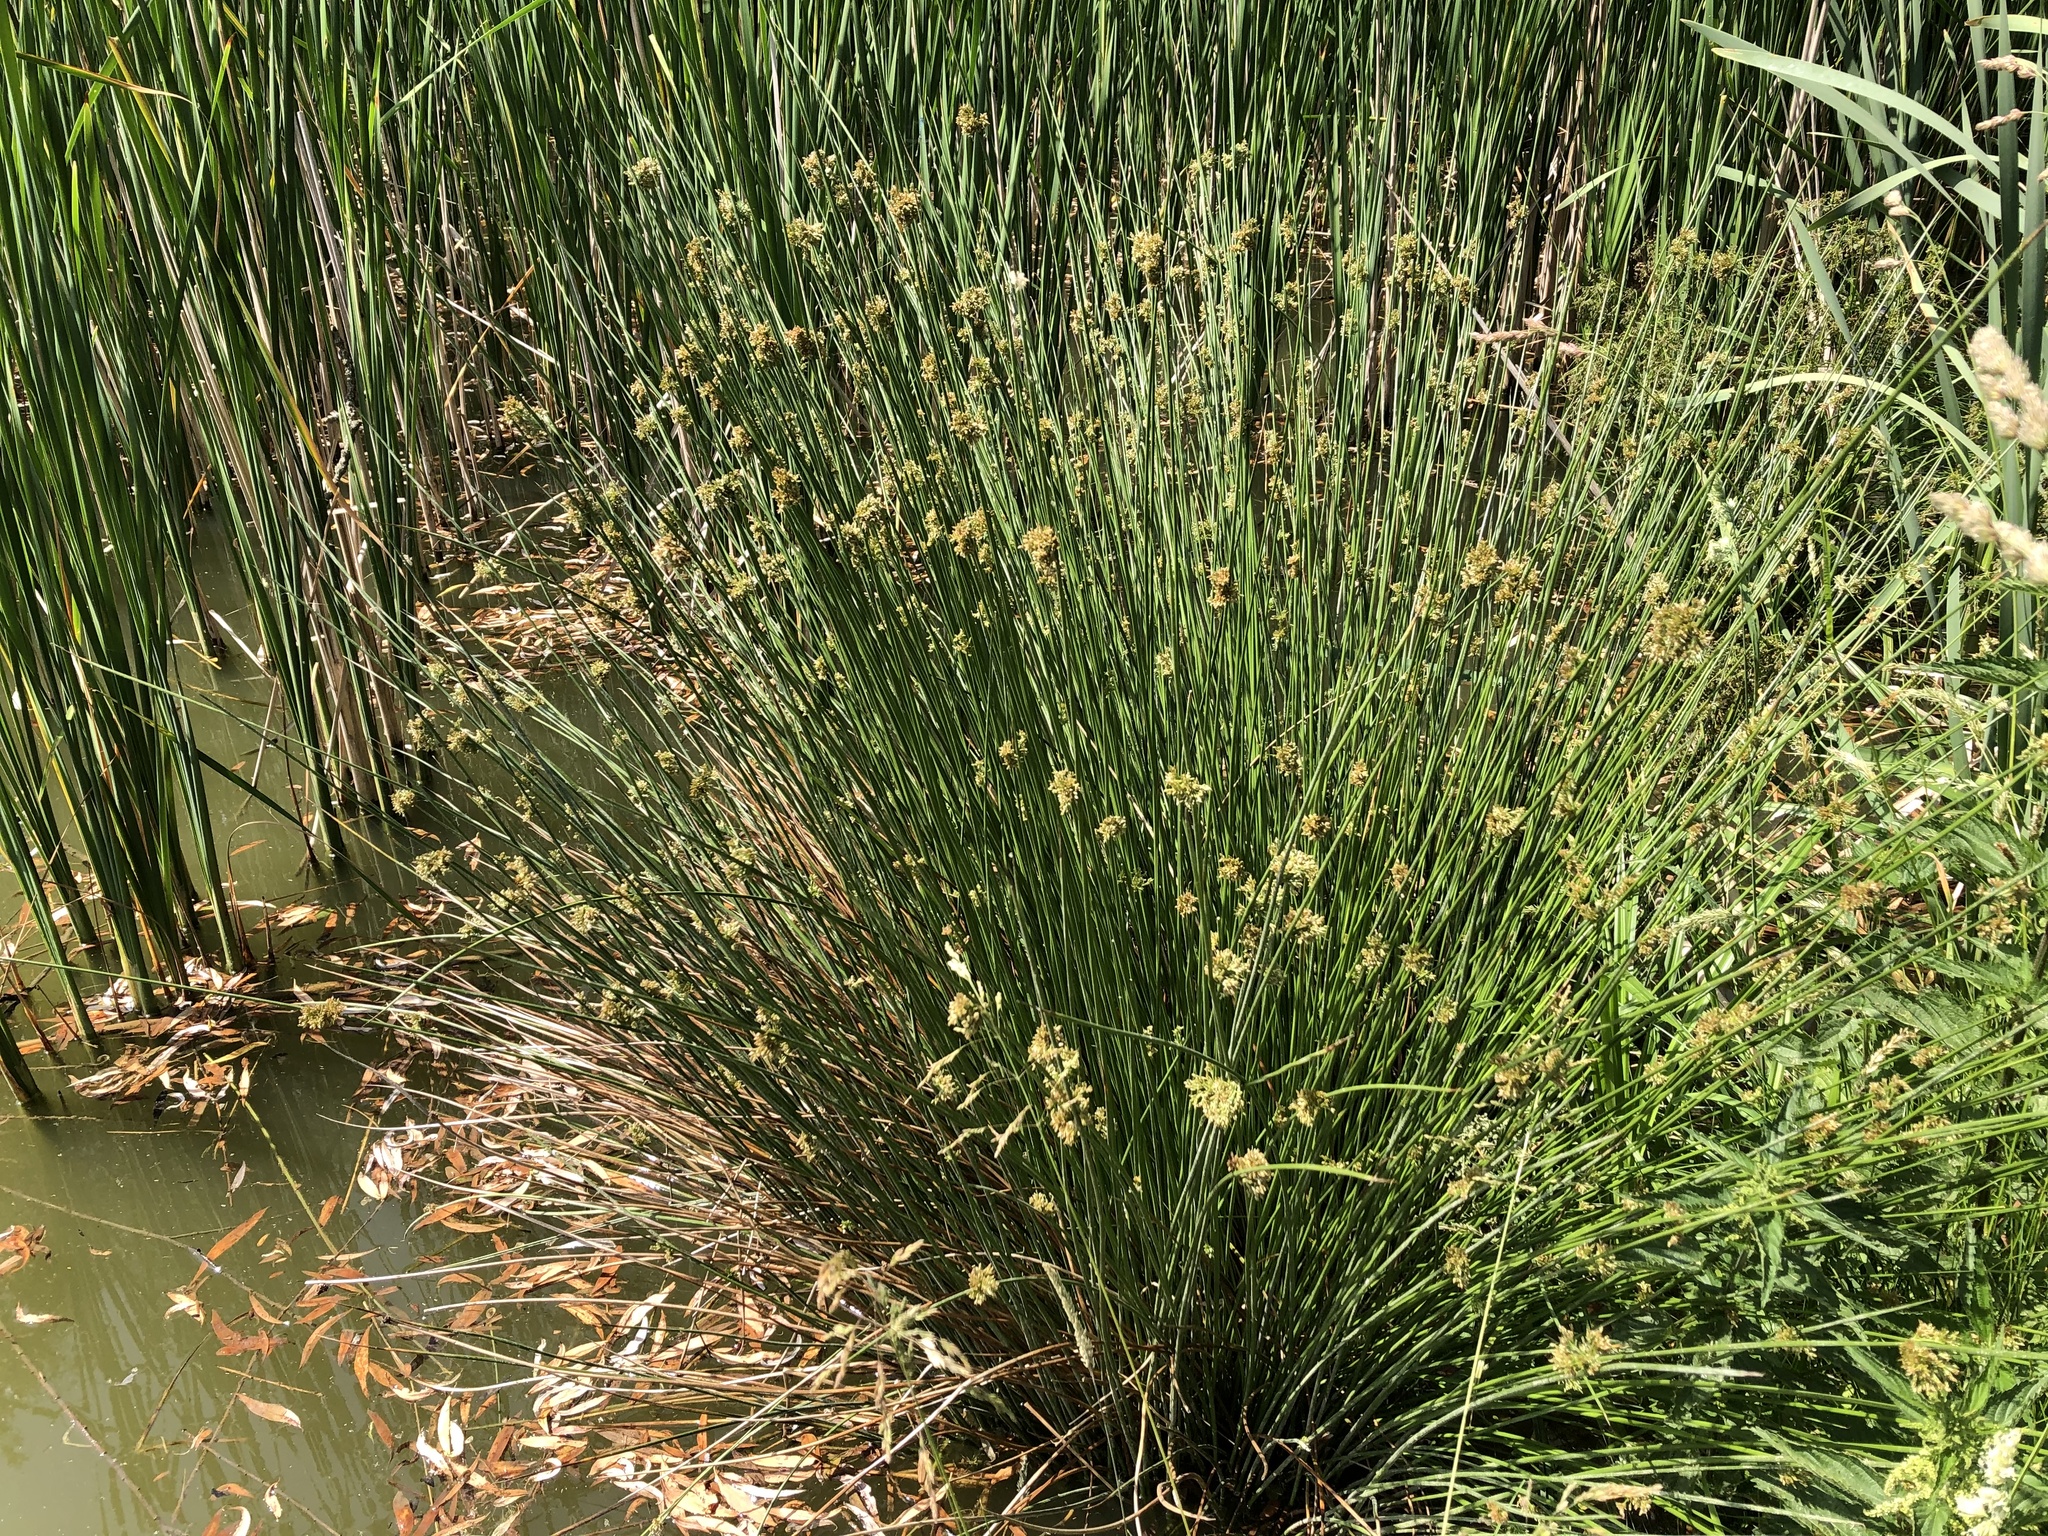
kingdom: Plantae
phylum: Tracheophyta
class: Liliopsida
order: Poales
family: Juncaceae
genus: Juncus
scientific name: Juncus effusus
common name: Soft rush
